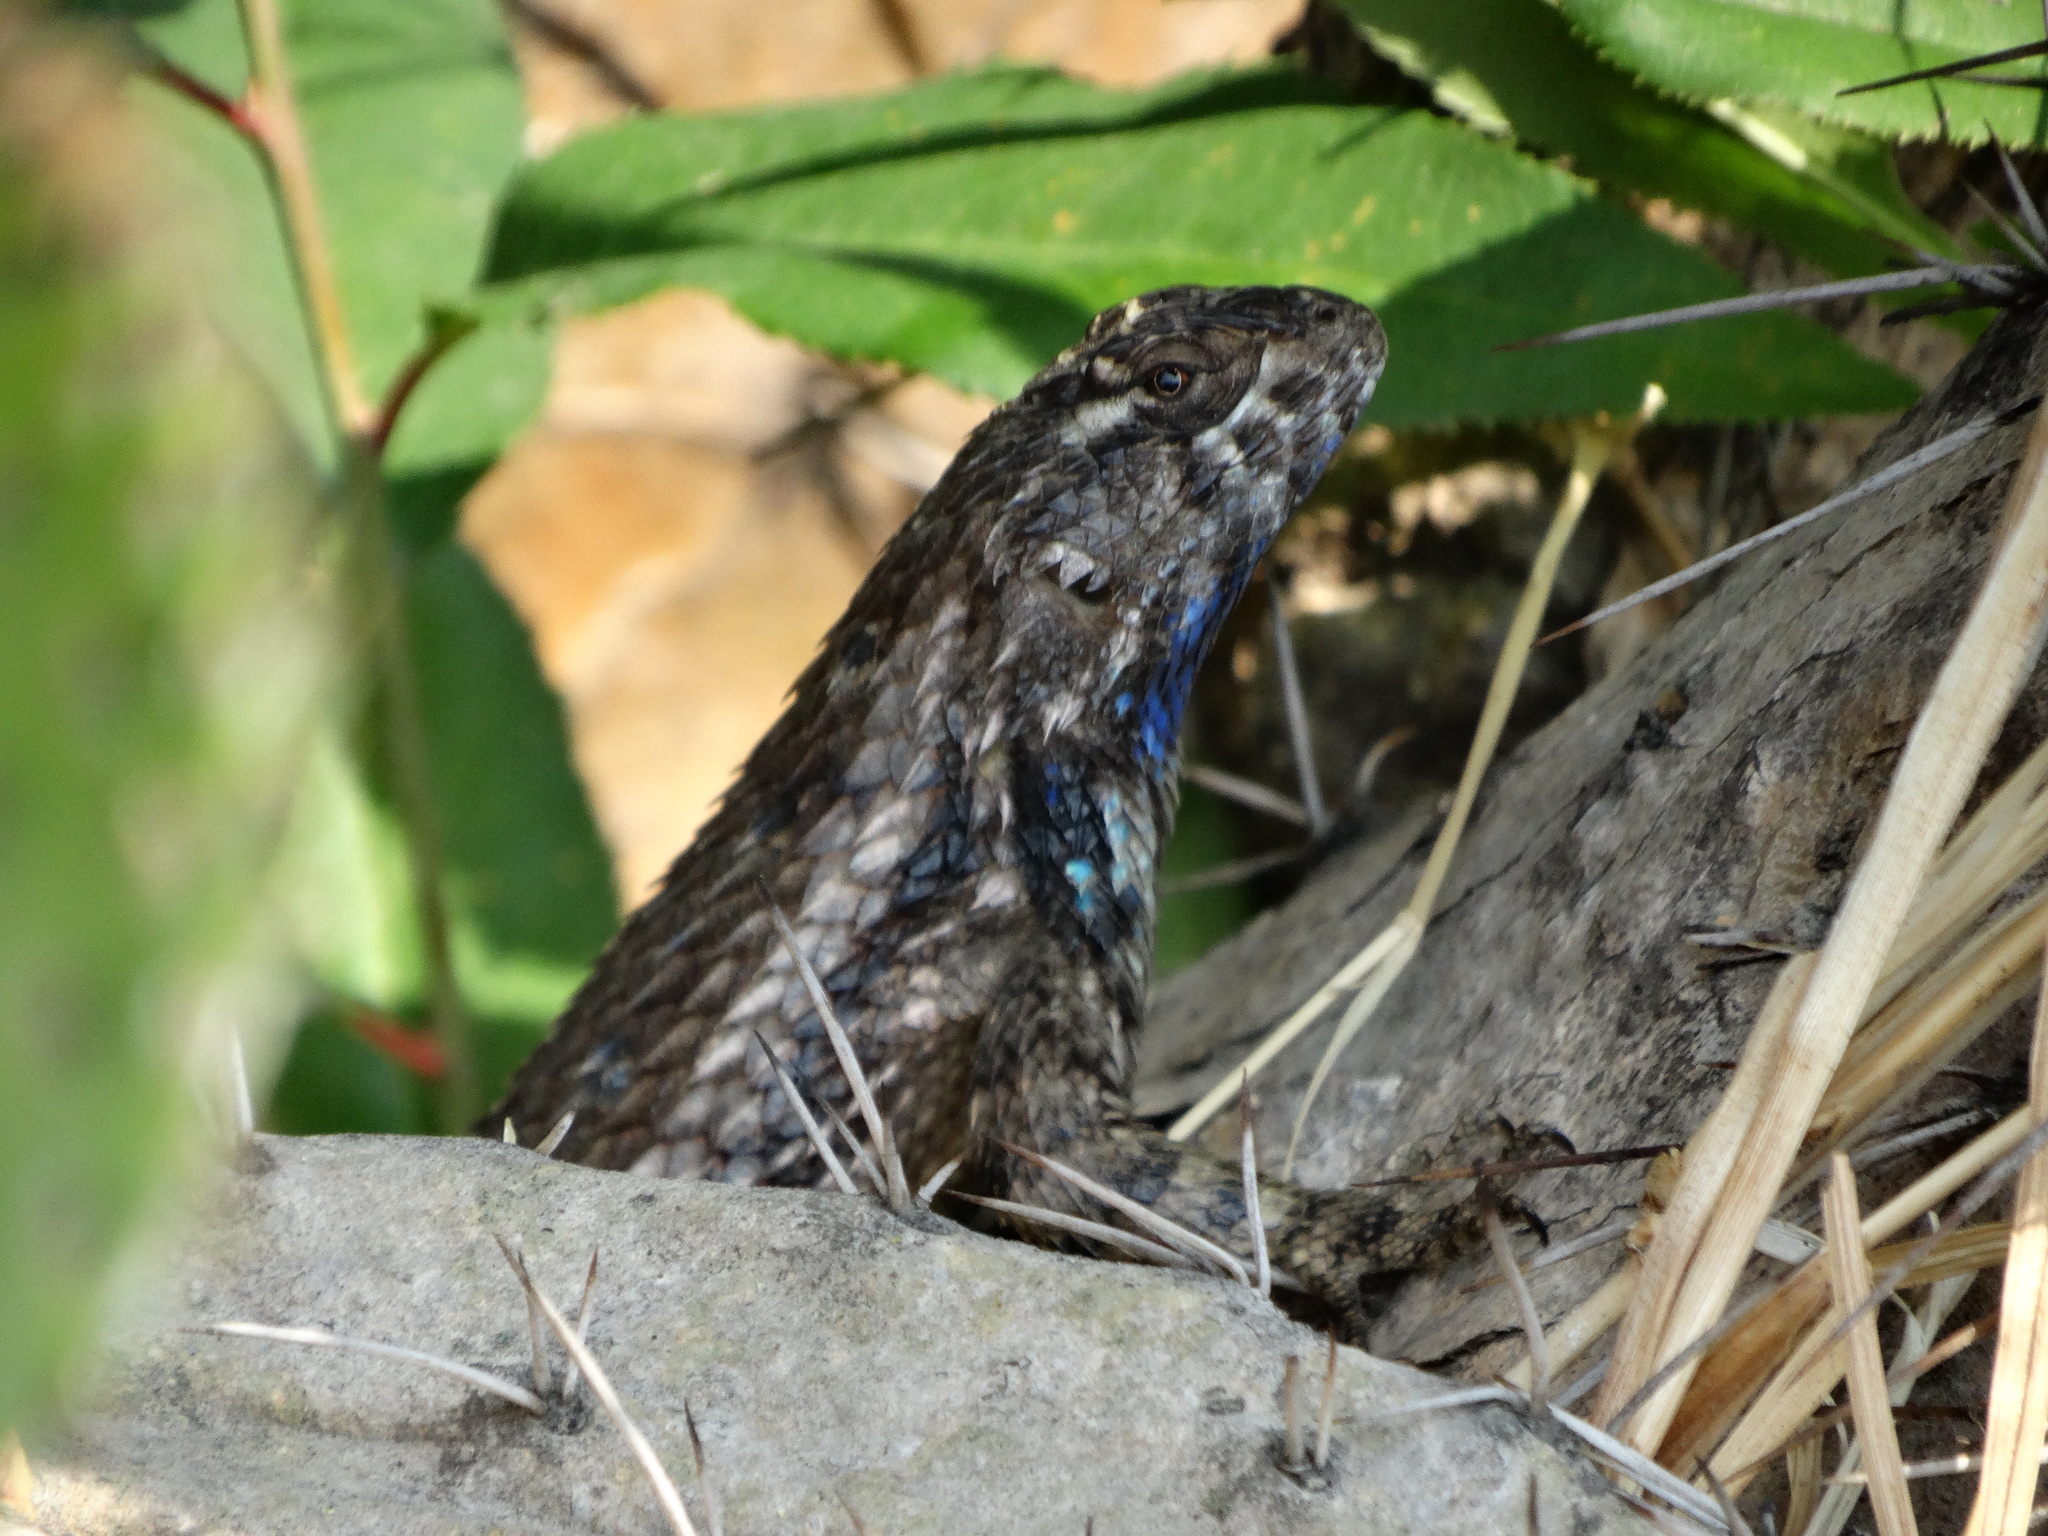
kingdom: Animalia
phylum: Chordata
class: Squamata
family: Phrynosomatidae
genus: Sceloporus
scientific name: Sceloporus spinosus
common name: Blue-spotted spiny lizard [caeruleopunctatus]
